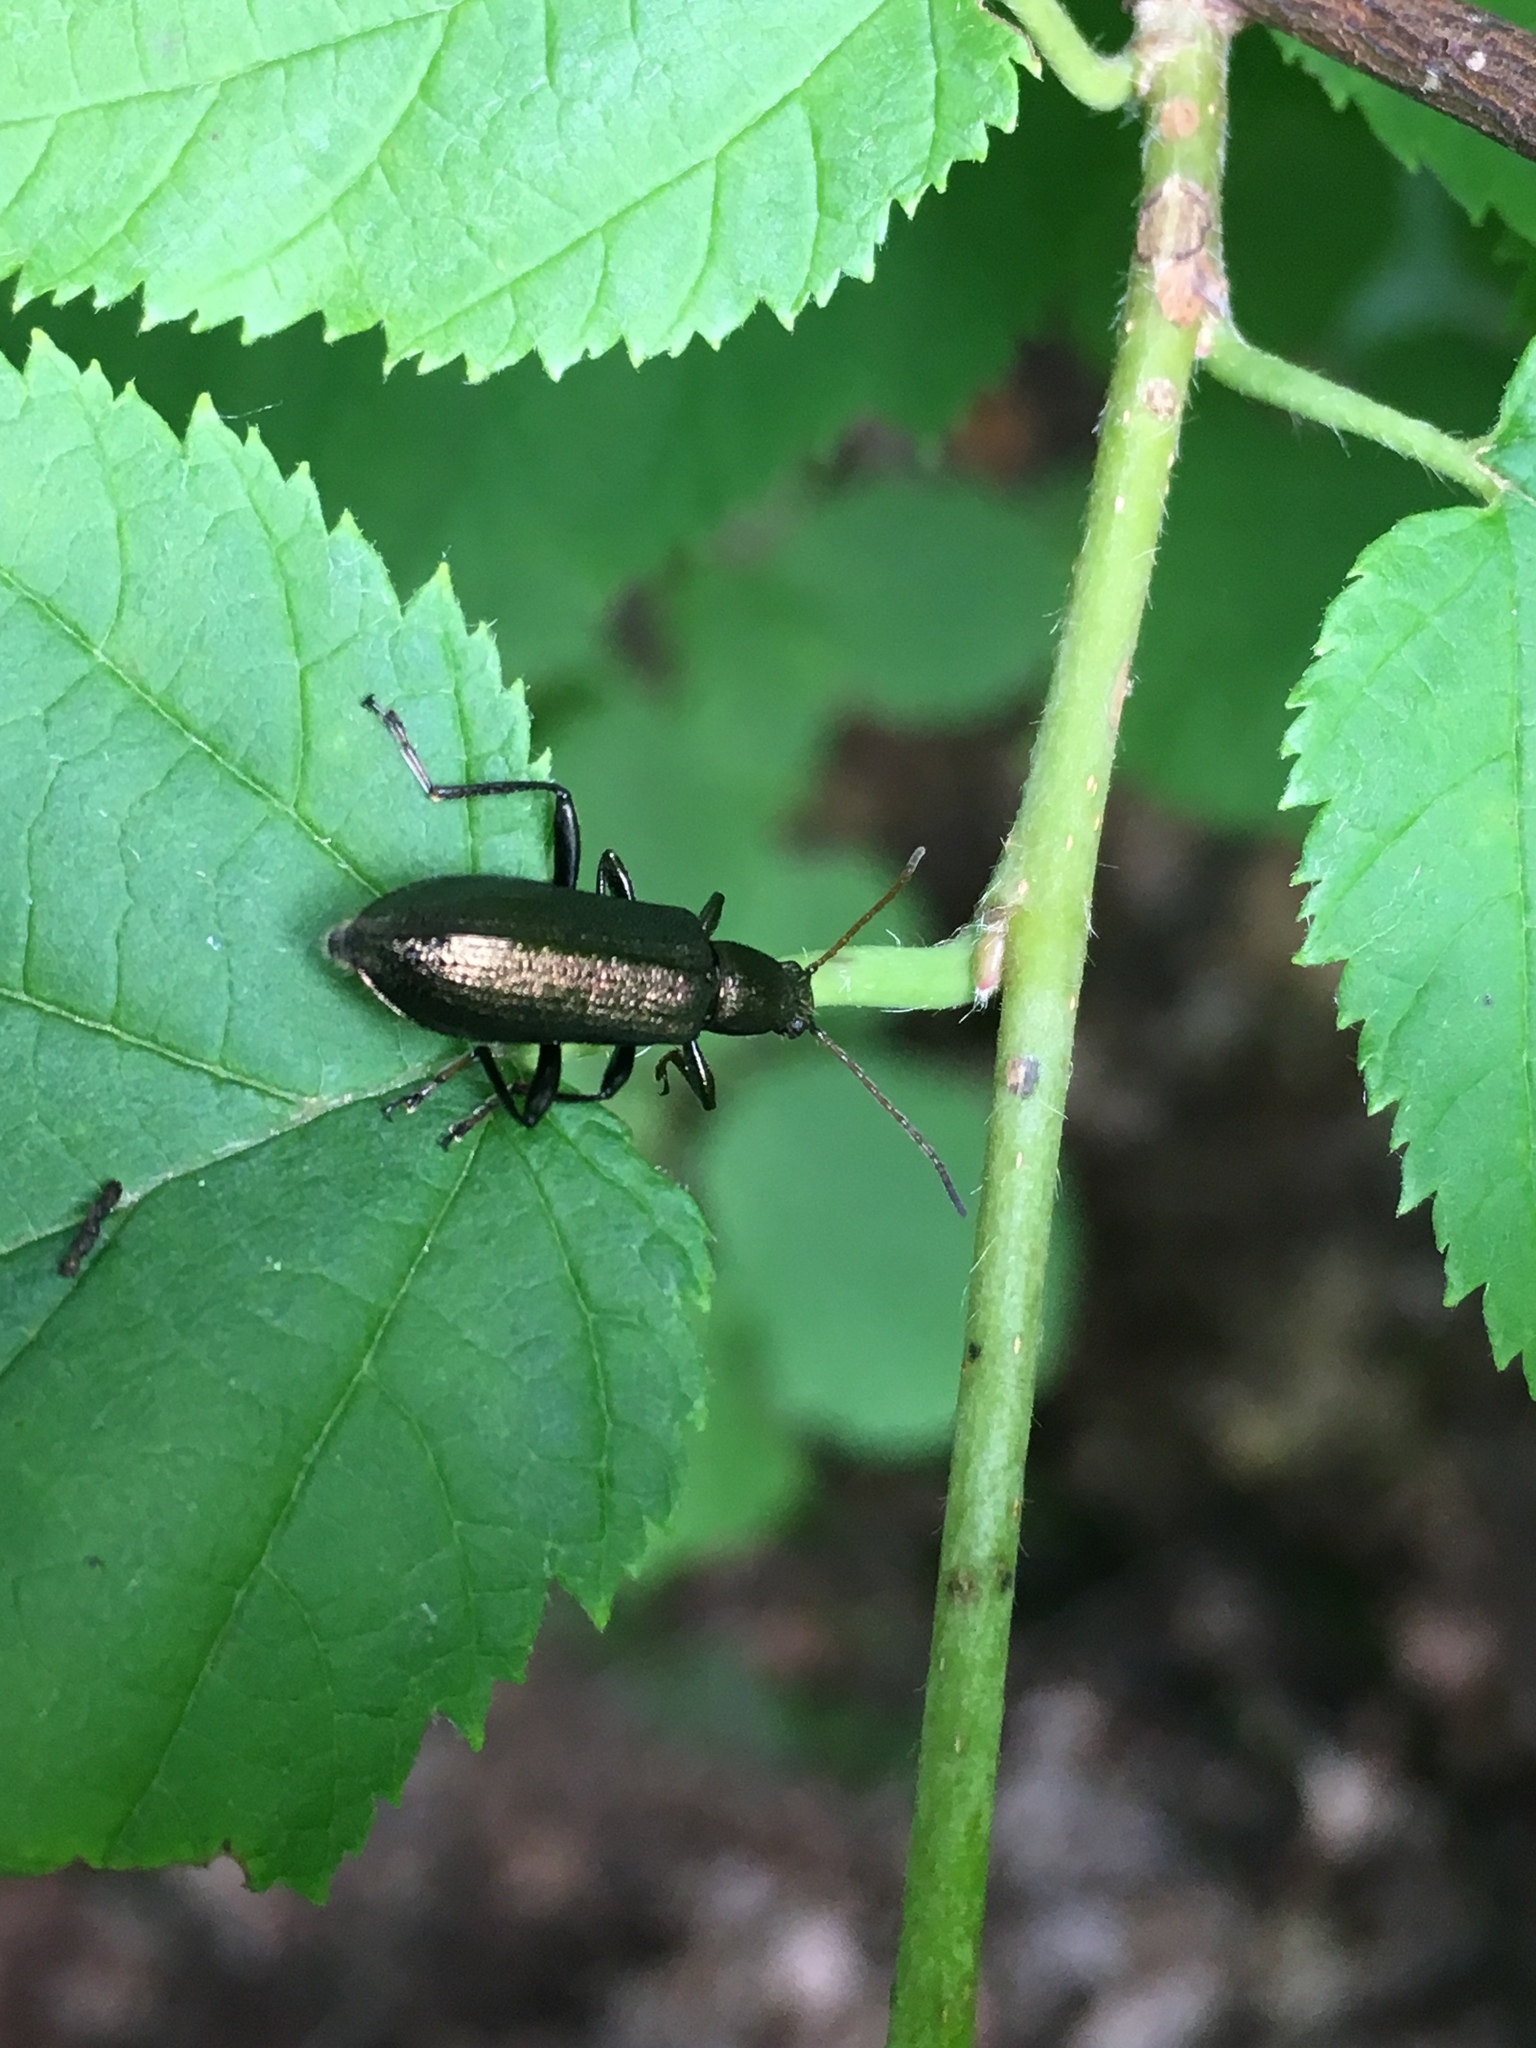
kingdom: Animalia
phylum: Arthropoda
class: Insecta
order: Coleoptera
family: Tenebrionidae
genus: Arthromacra
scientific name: Arthromacra aenea
